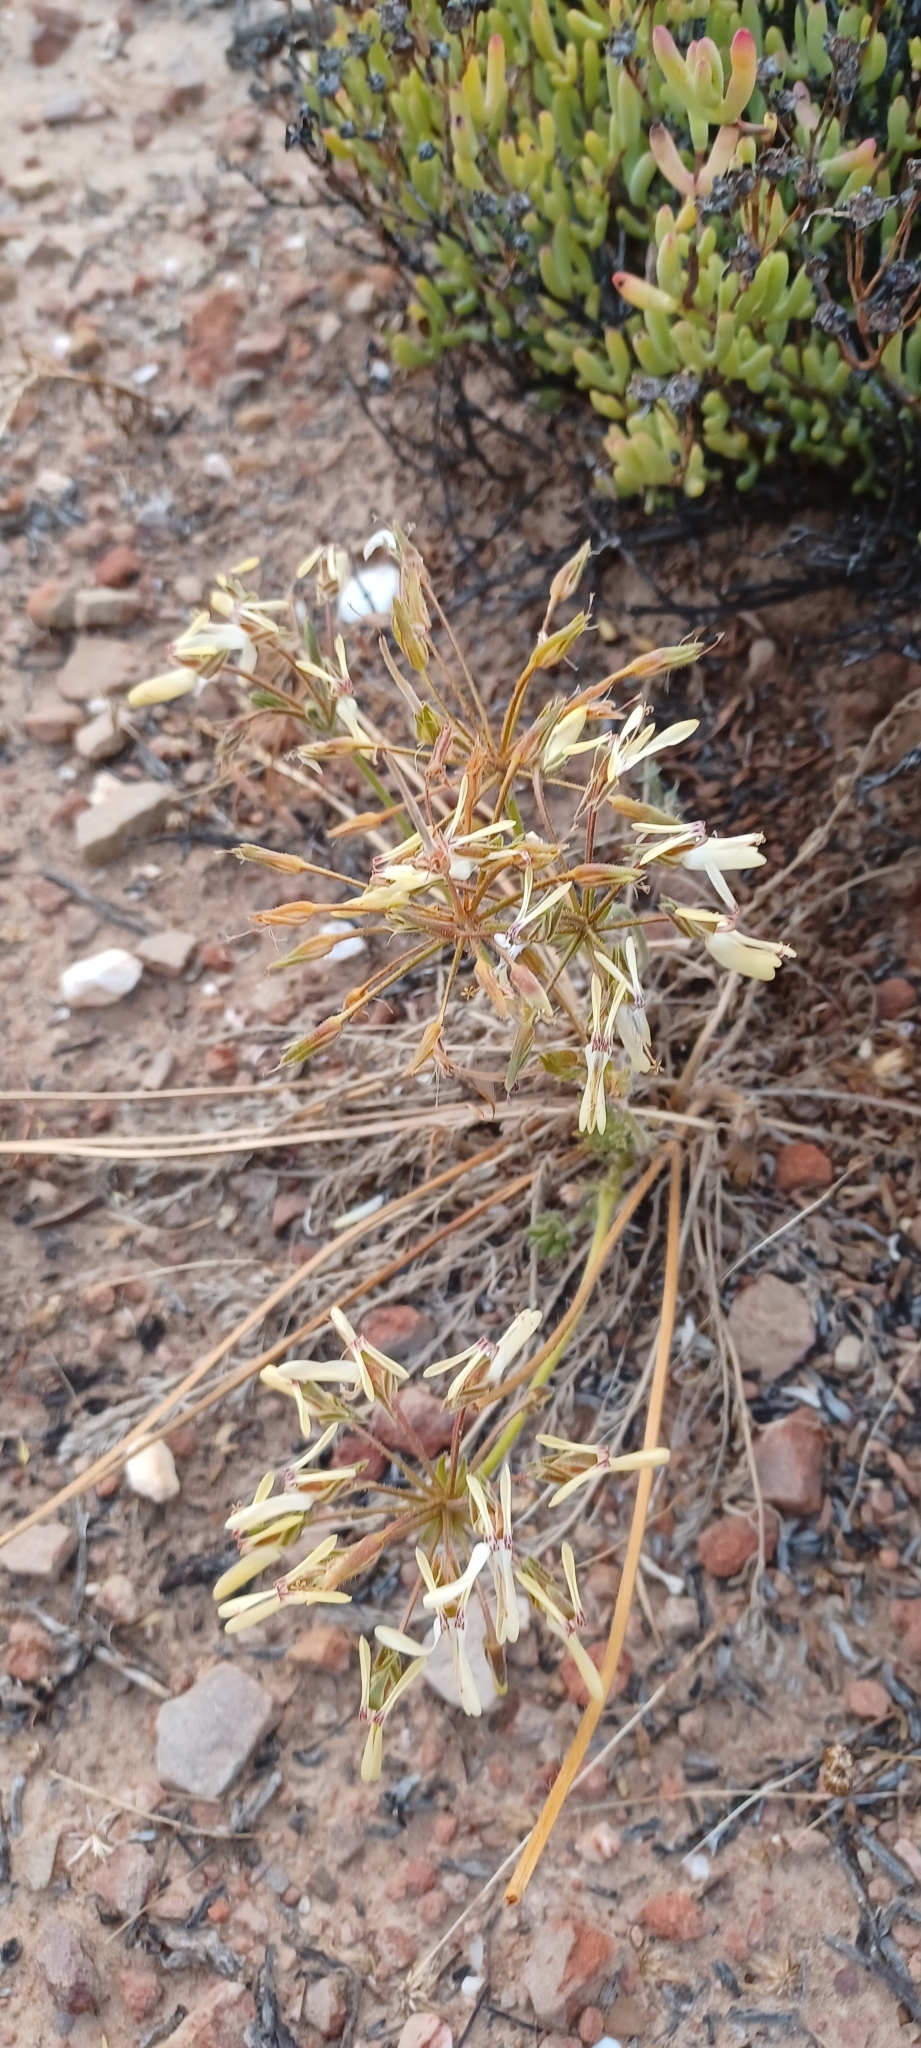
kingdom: Plantae
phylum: Tracheophyta
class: Magnoliopsida
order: Geraniales
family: Geraniaceae
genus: Pelargonium
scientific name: Pelargonium rapaceum
